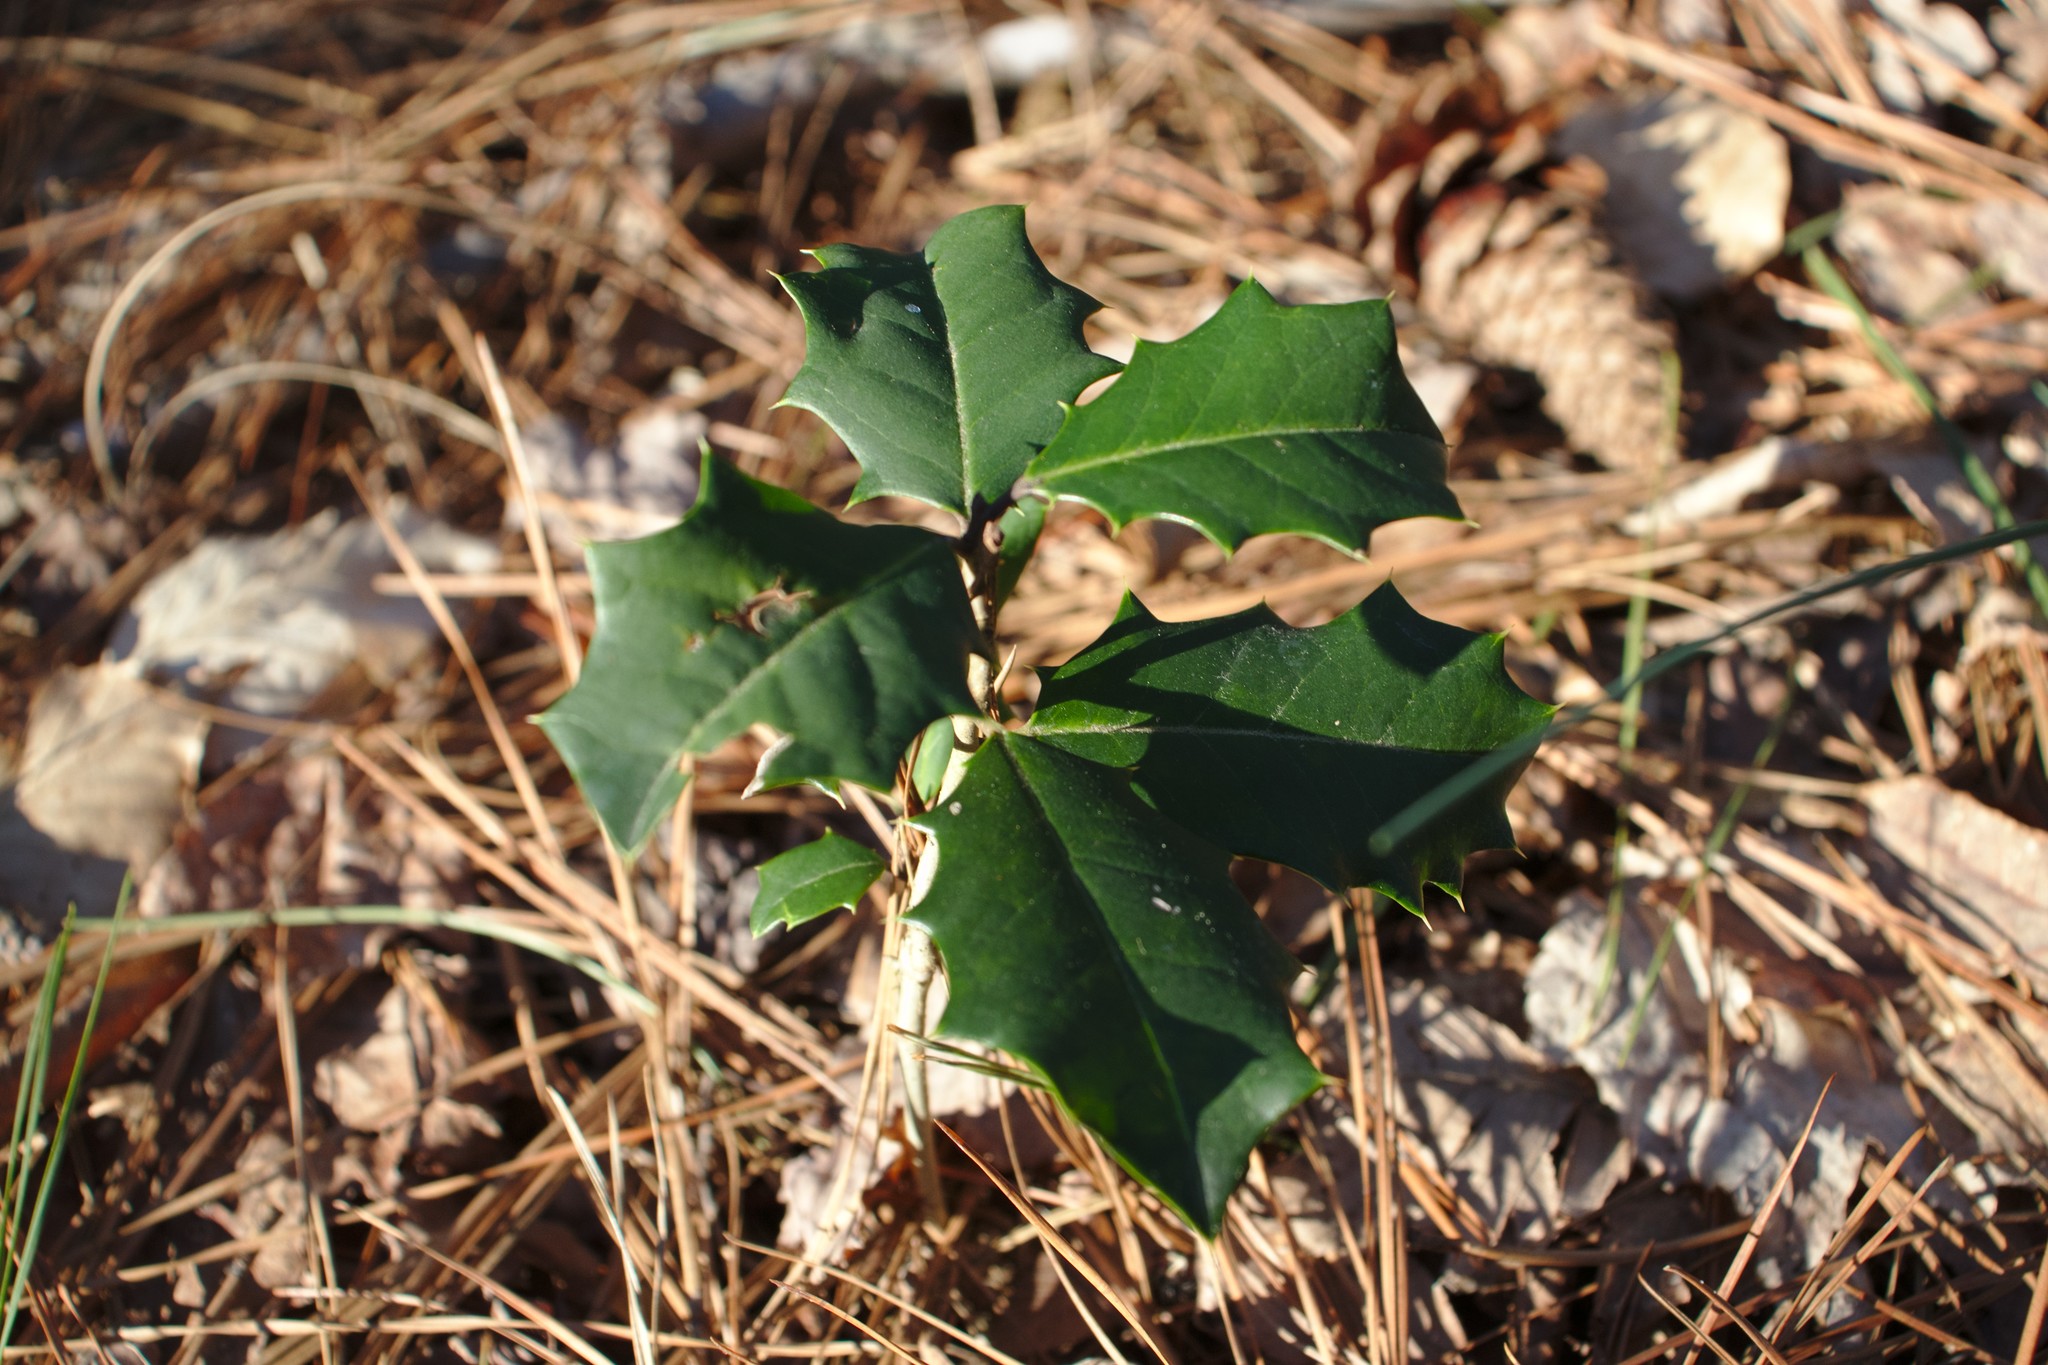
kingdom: Plantae
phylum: Tracheophyta
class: Magnoliopsida
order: Aquifoliales
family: Aquifoliaceae
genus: Ilex
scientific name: Ilex opaca
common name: American holly
